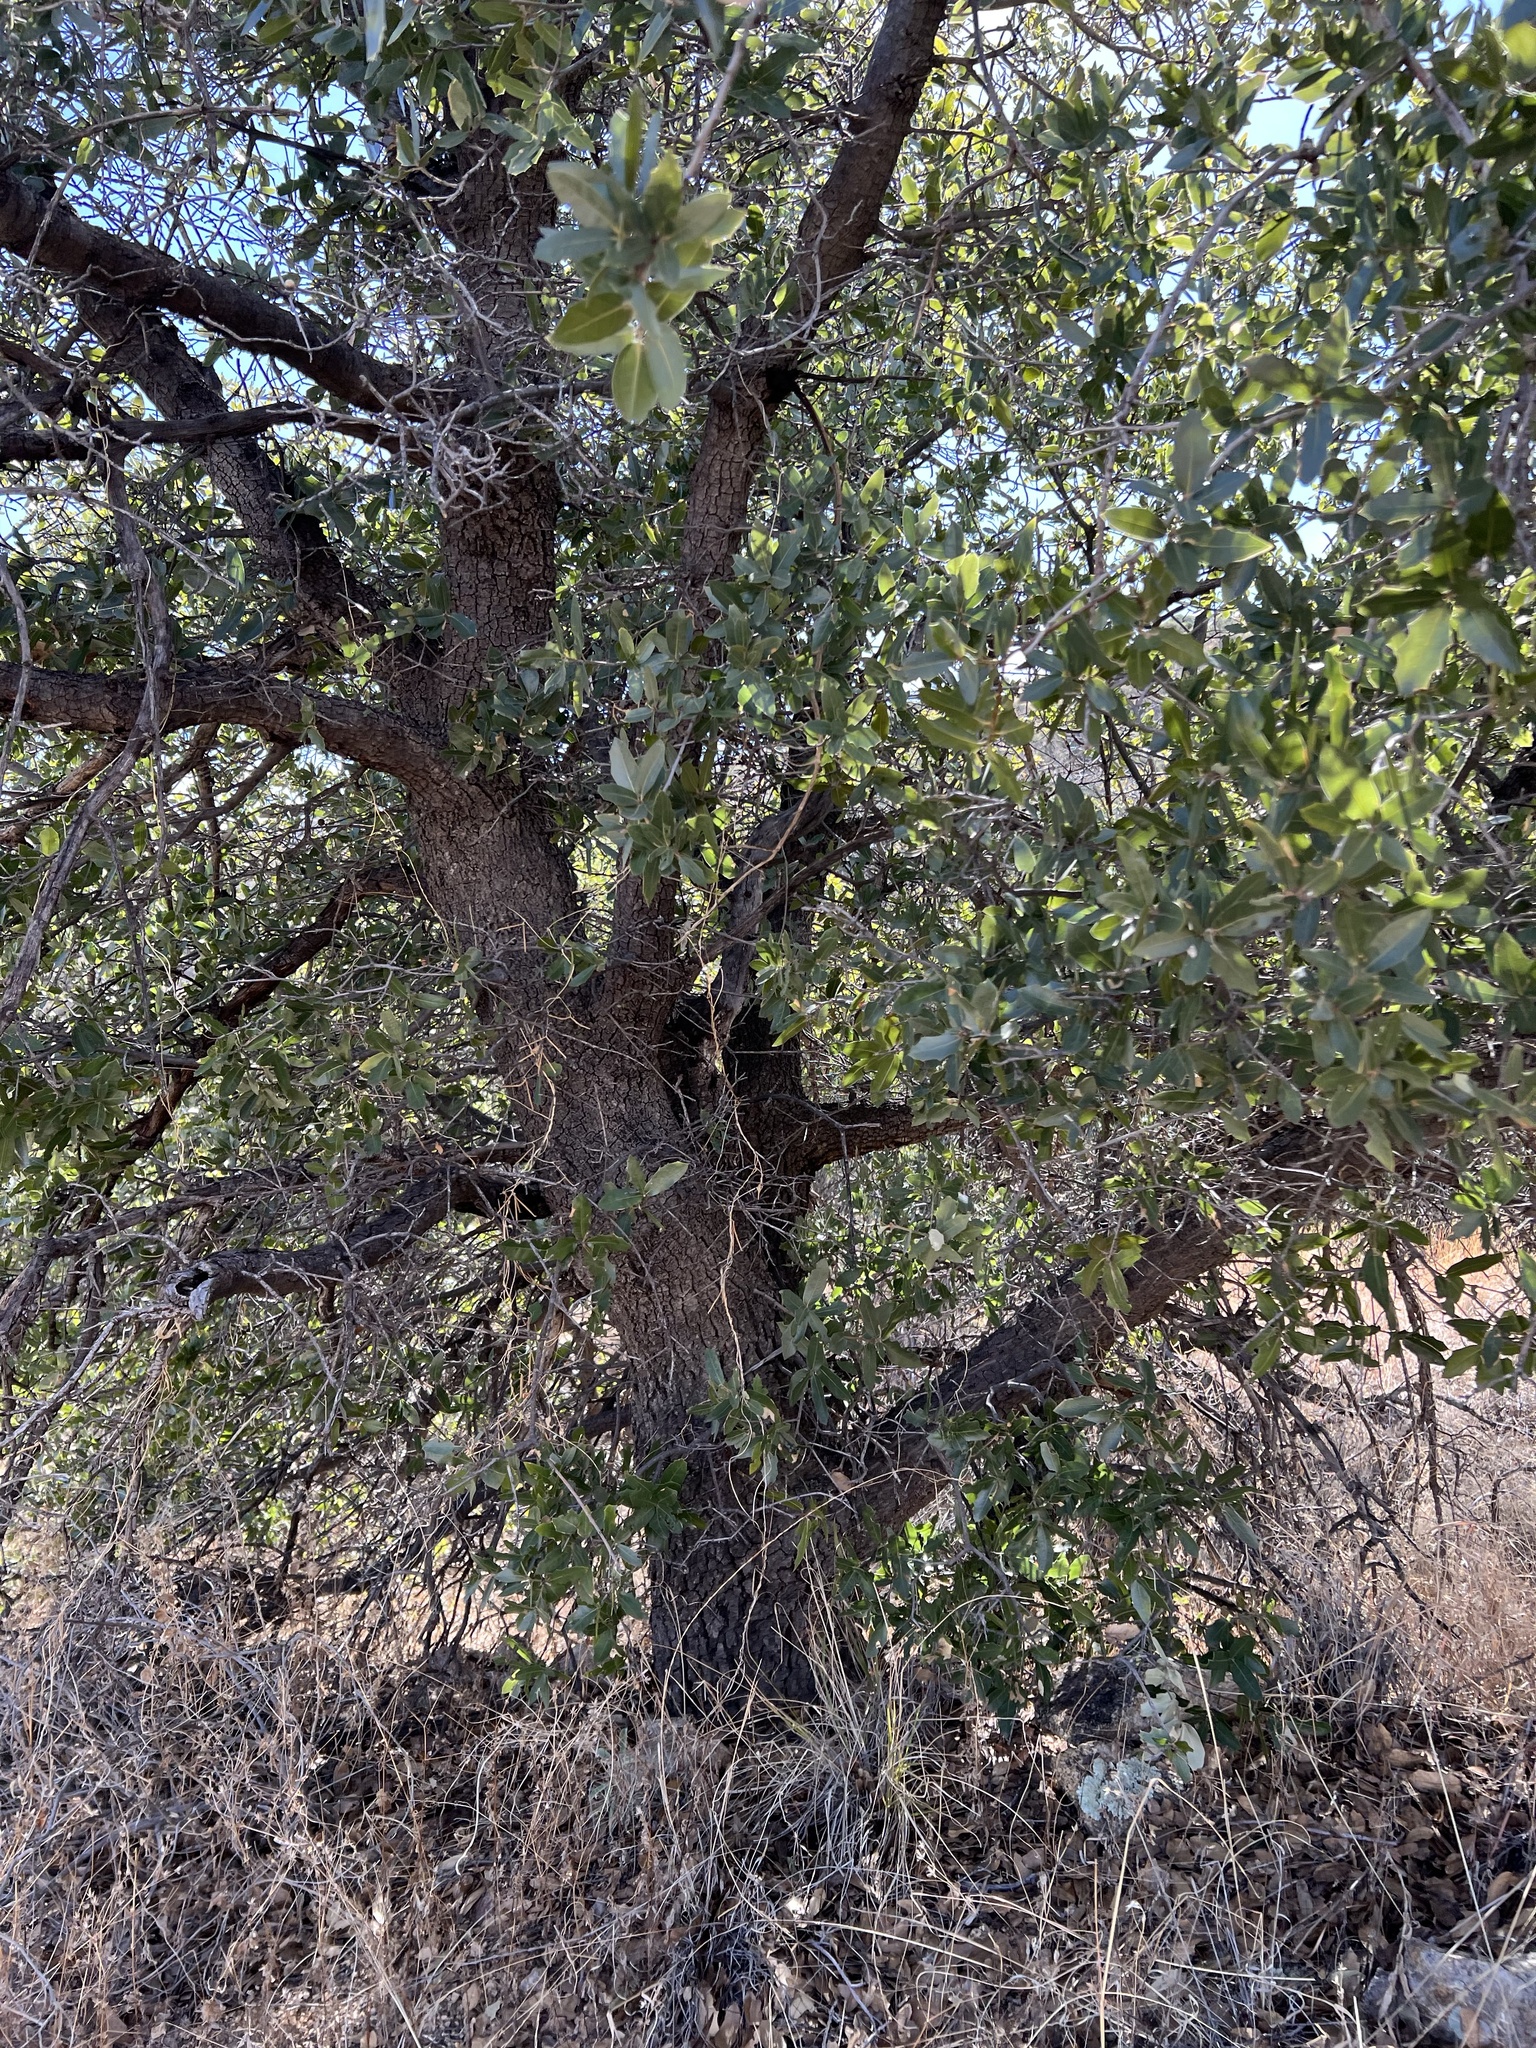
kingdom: Plantae
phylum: Tracheophyta
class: Magnoliopsida
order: Fagales
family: Fagaceae
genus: Quercus
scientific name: Quercus emoryi
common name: Emory oak
